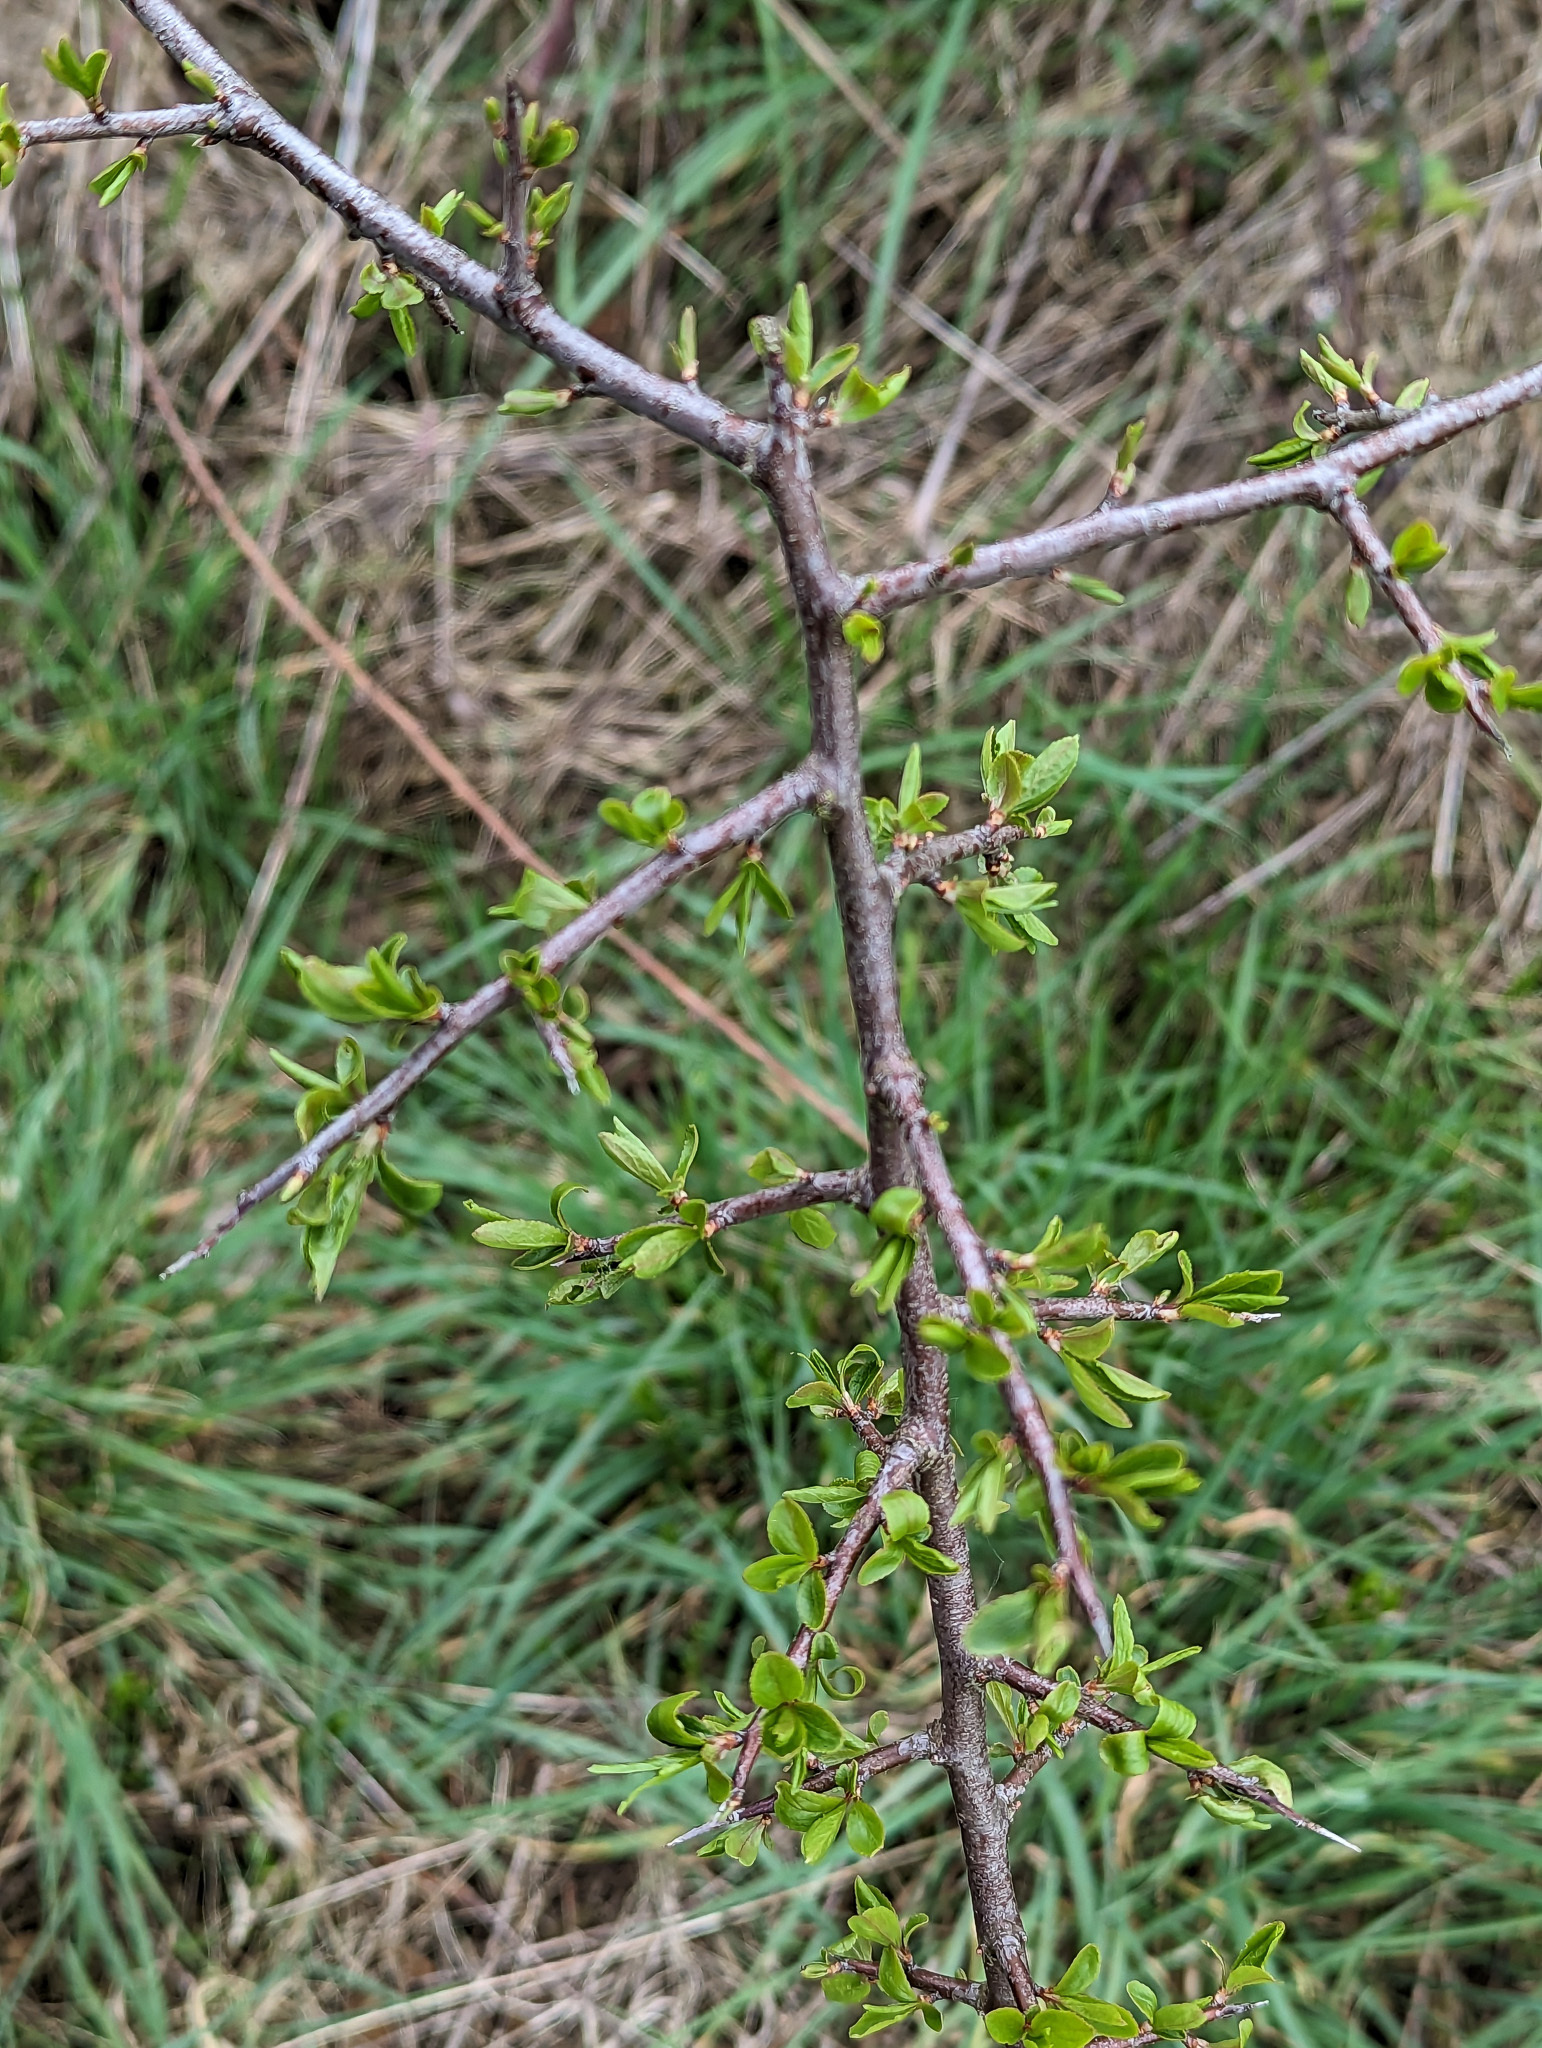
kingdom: Plantae
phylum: Tracheophyta
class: Magnoliopsida
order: Rosales
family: Rosaceae
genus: Prunus
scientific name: Prunus spinosa
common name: Blackthorn
